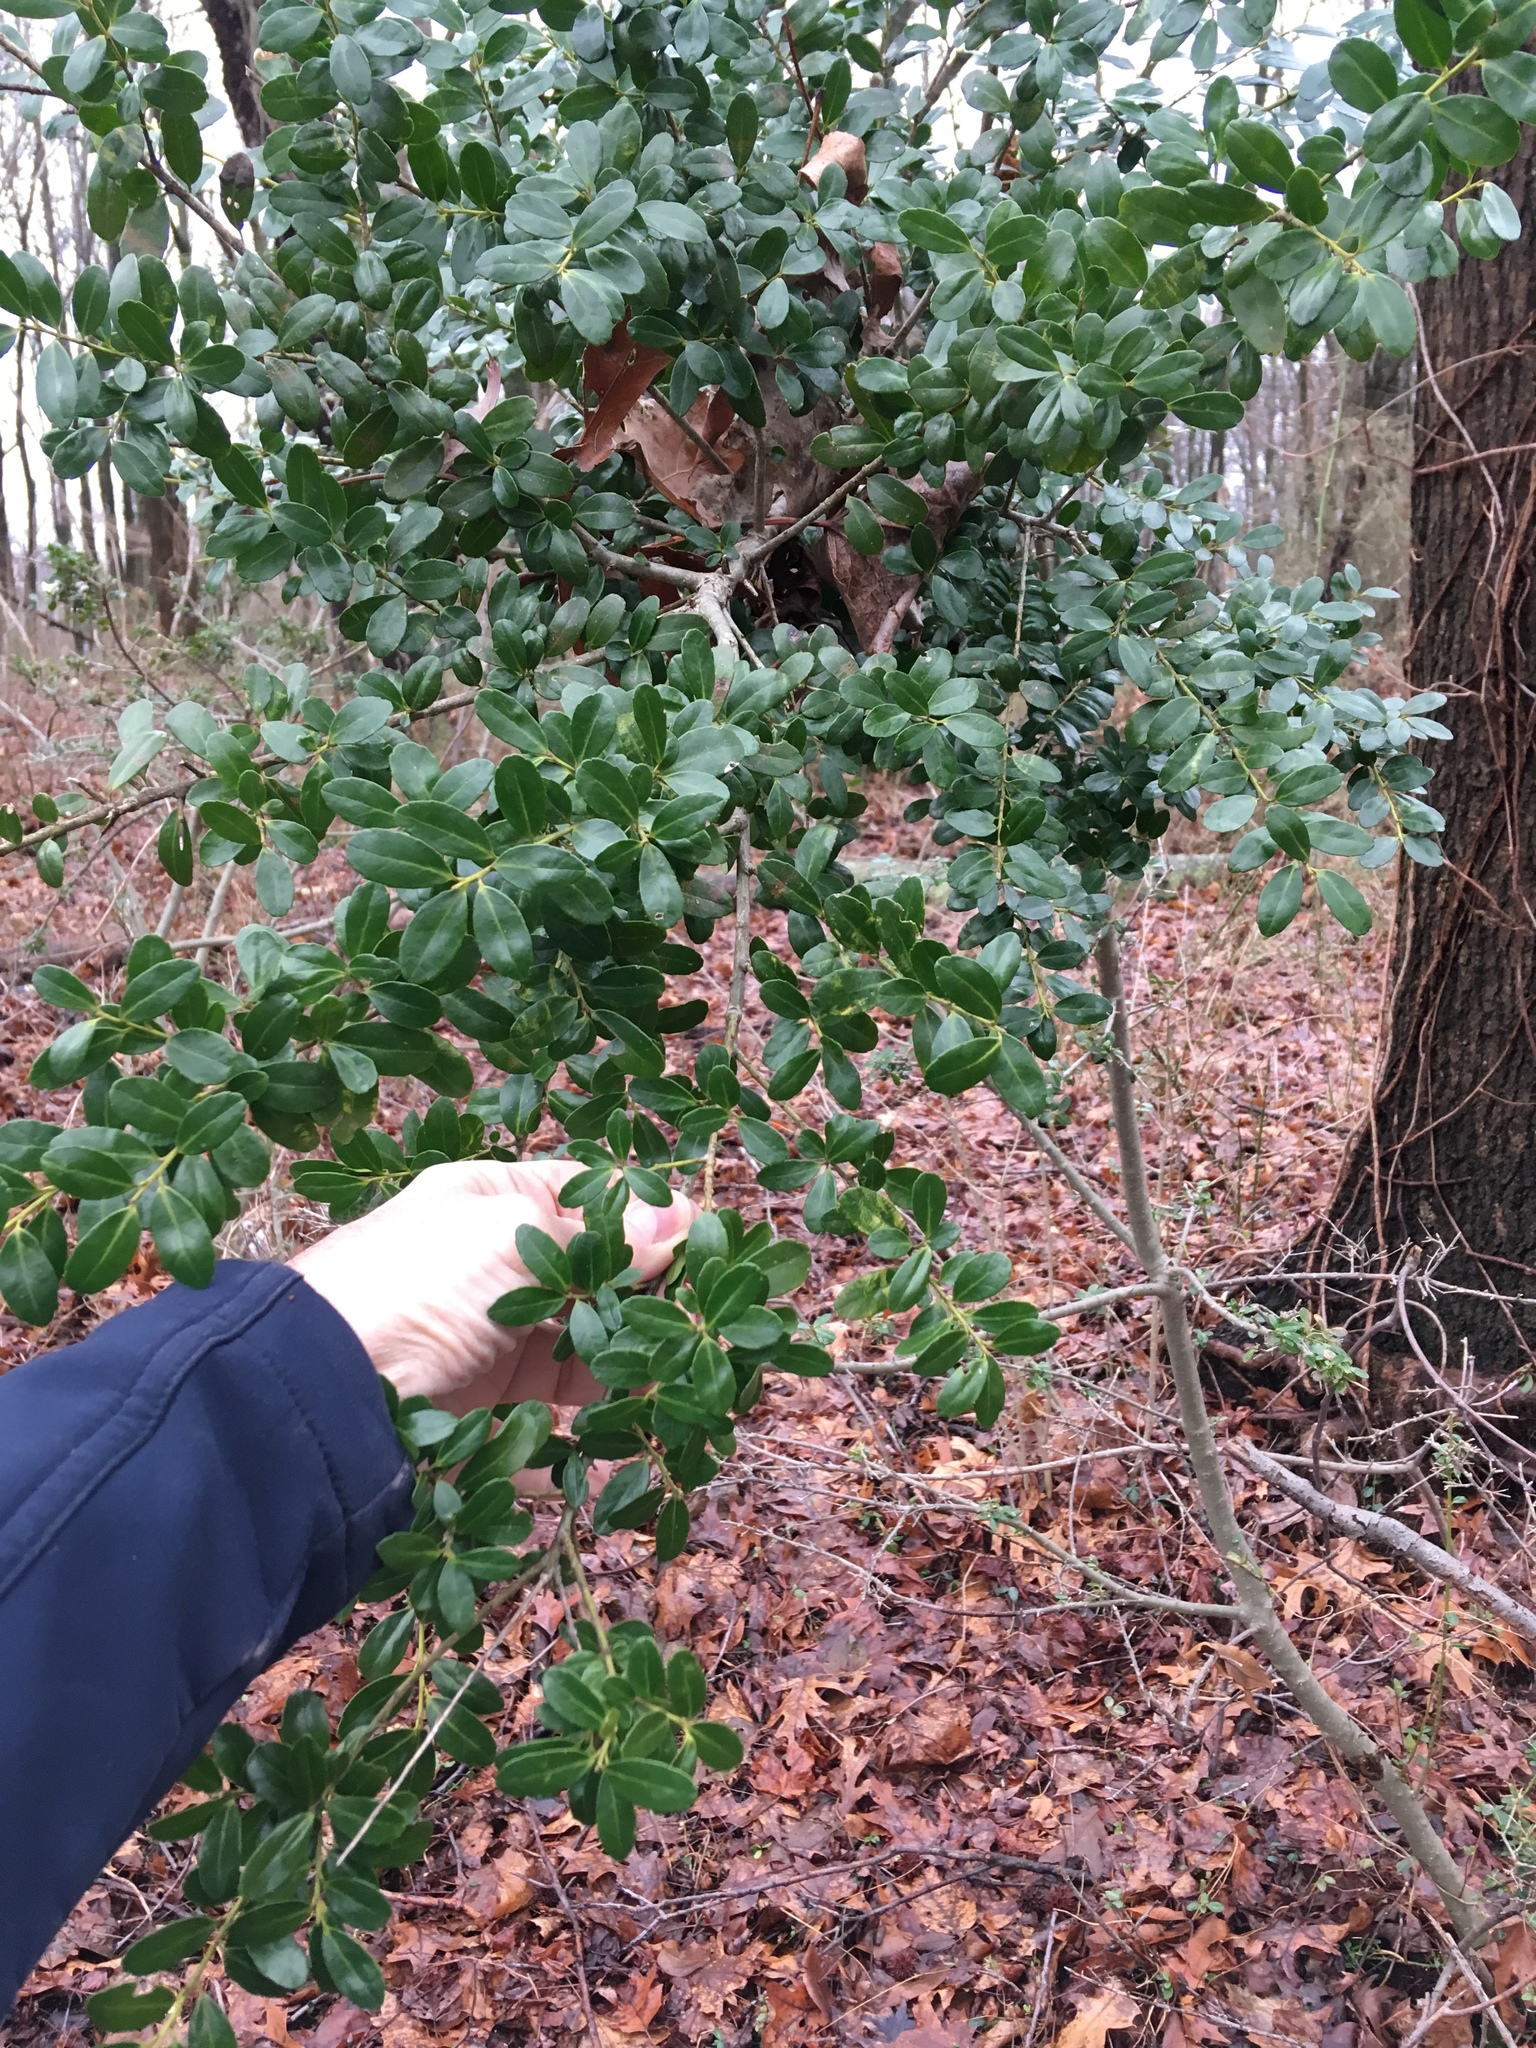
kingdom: Plantae
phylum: Tracheophyta
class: Magnoliopsida
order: Aquifoliales
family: Aquifoliaceae
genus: Ilex
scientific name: Ilex crenata
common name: Japanese holly
